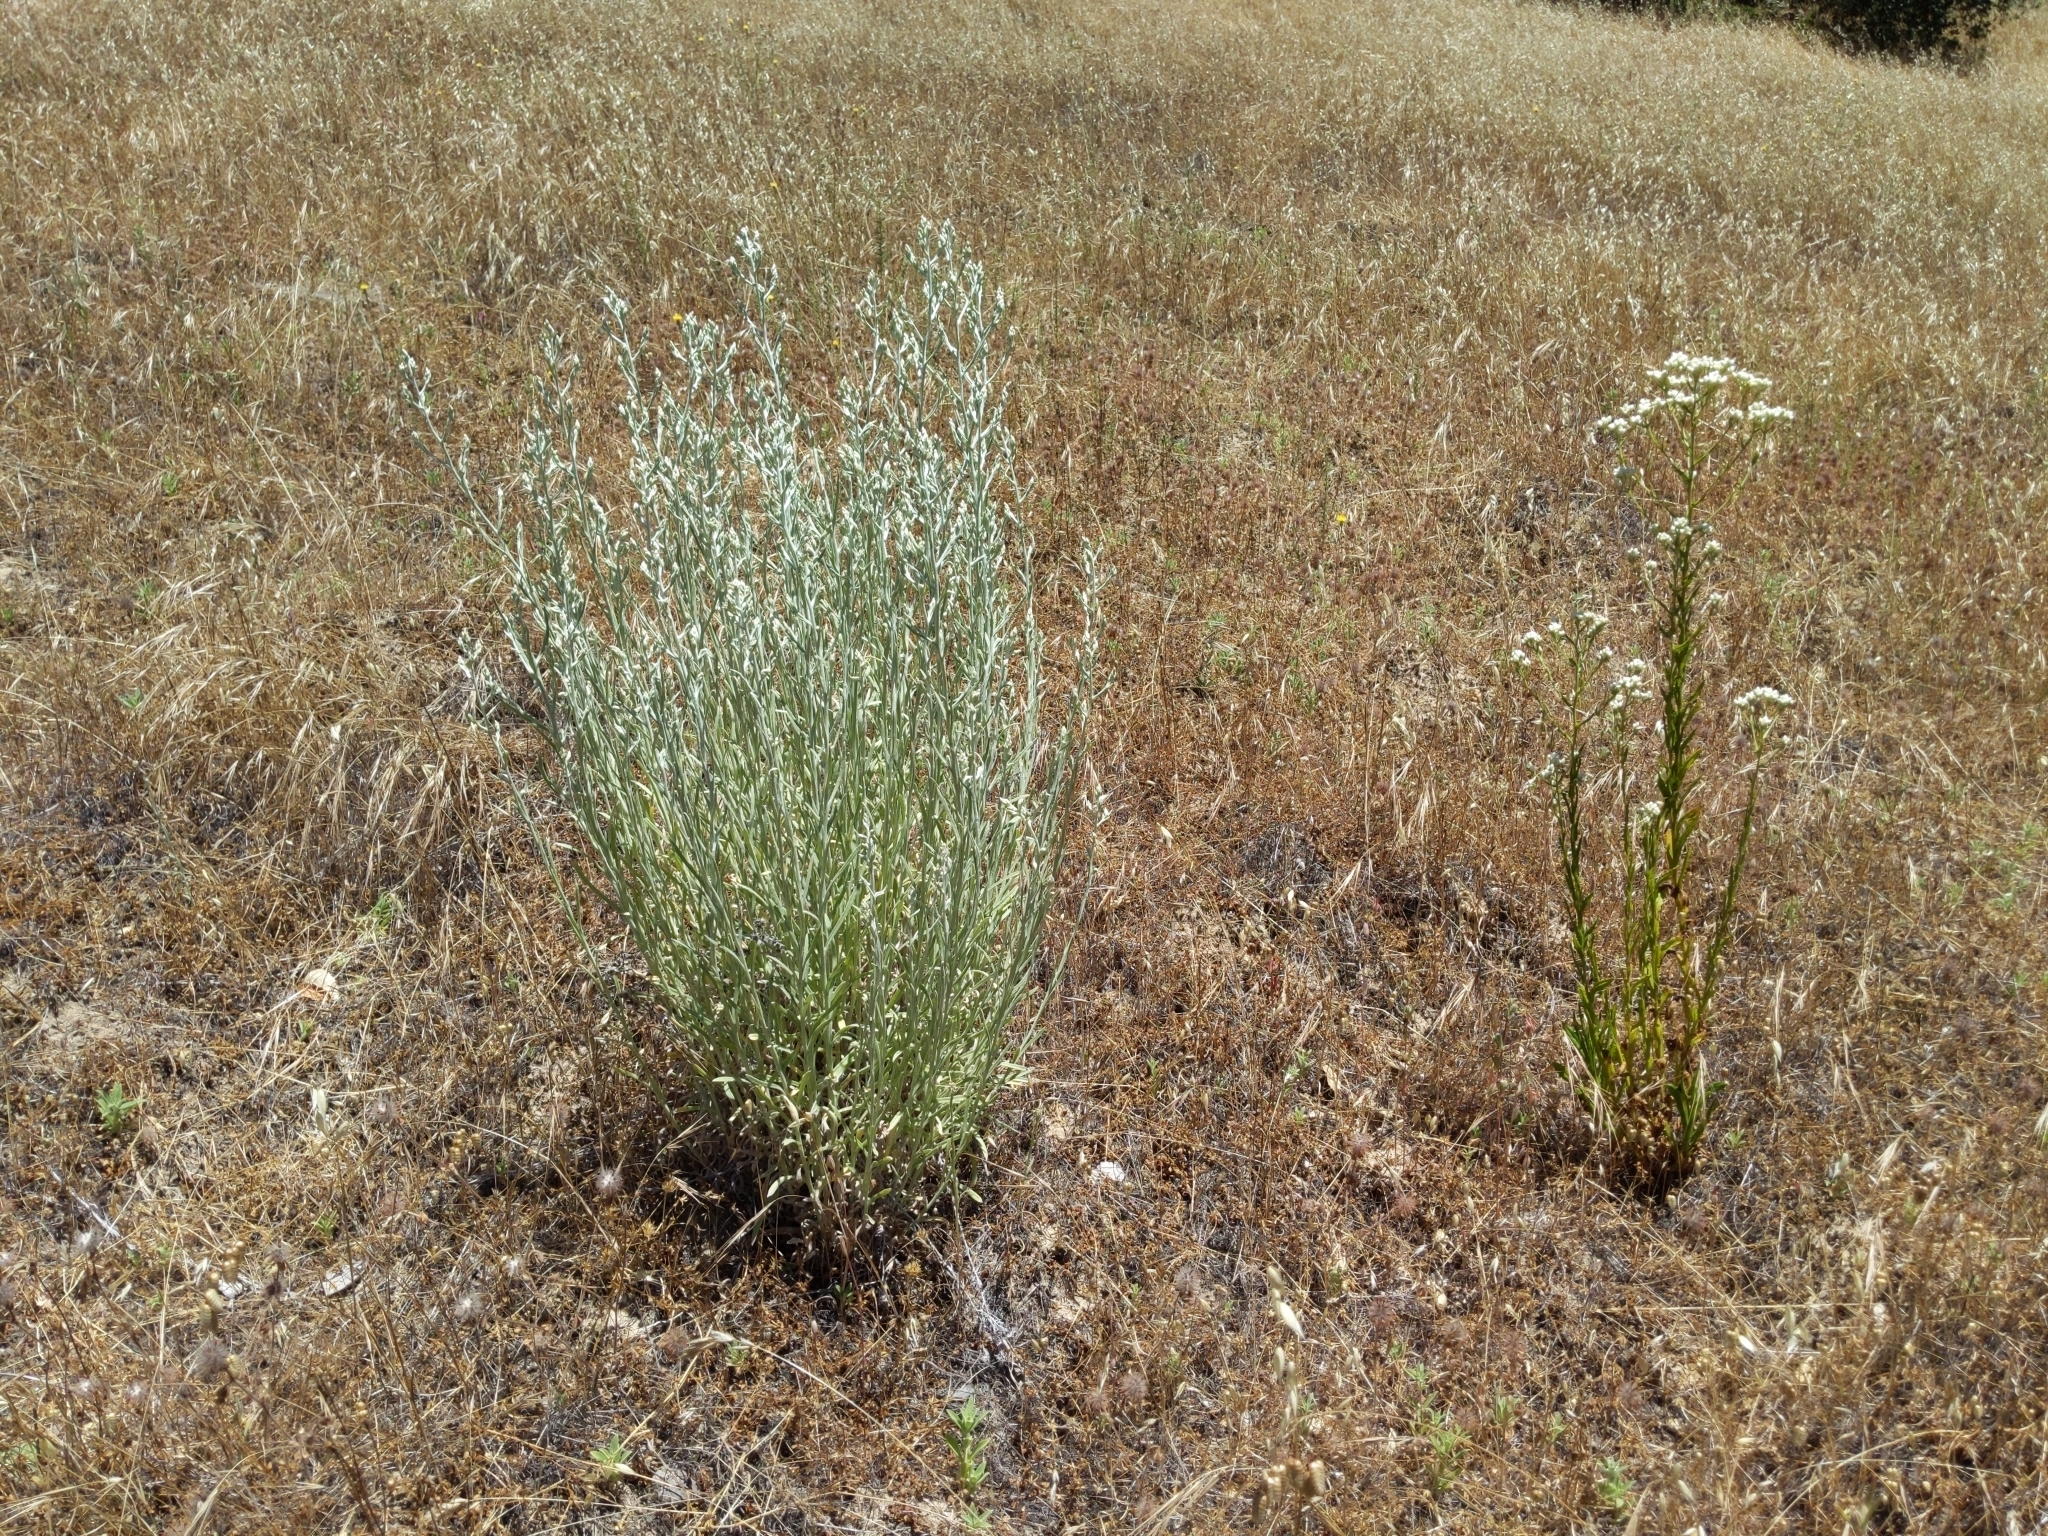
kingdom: Plantae
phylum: Tracheophyta
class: Magnoliopsida
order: Asterales
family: Asteraceae
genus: Pseudognaphalium
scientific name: Pseudognaphalium beneolens
